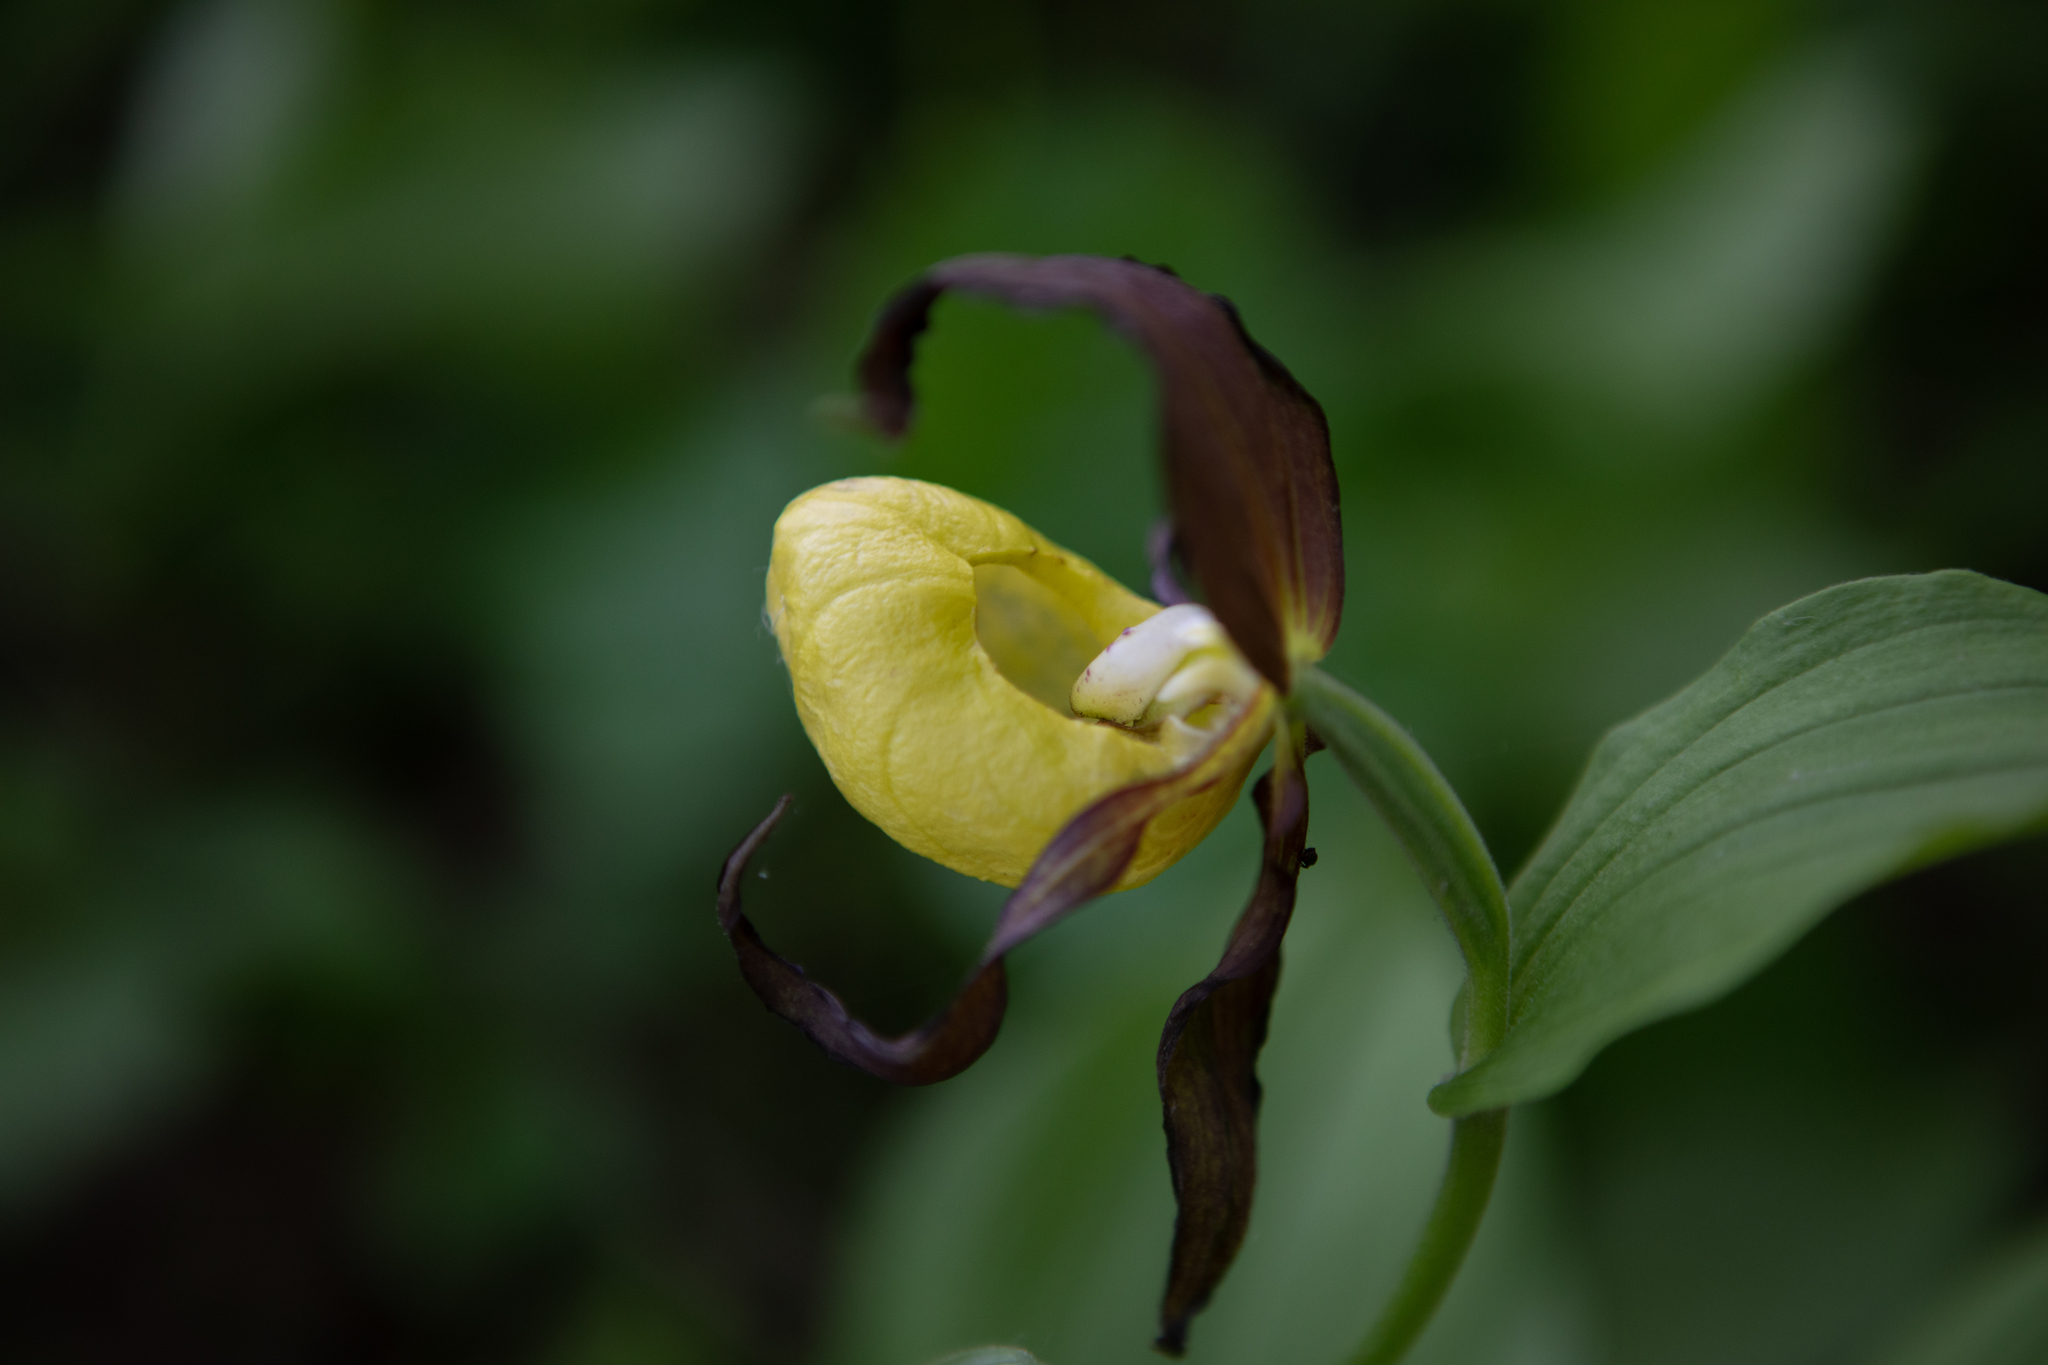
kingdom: Plantae
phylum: Tracheophyta
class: Liliopsida
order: Asparagales
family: Orchidaceae
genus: Cypripedium
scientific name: Cypripedium calceolus
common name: Lady's-slipper
